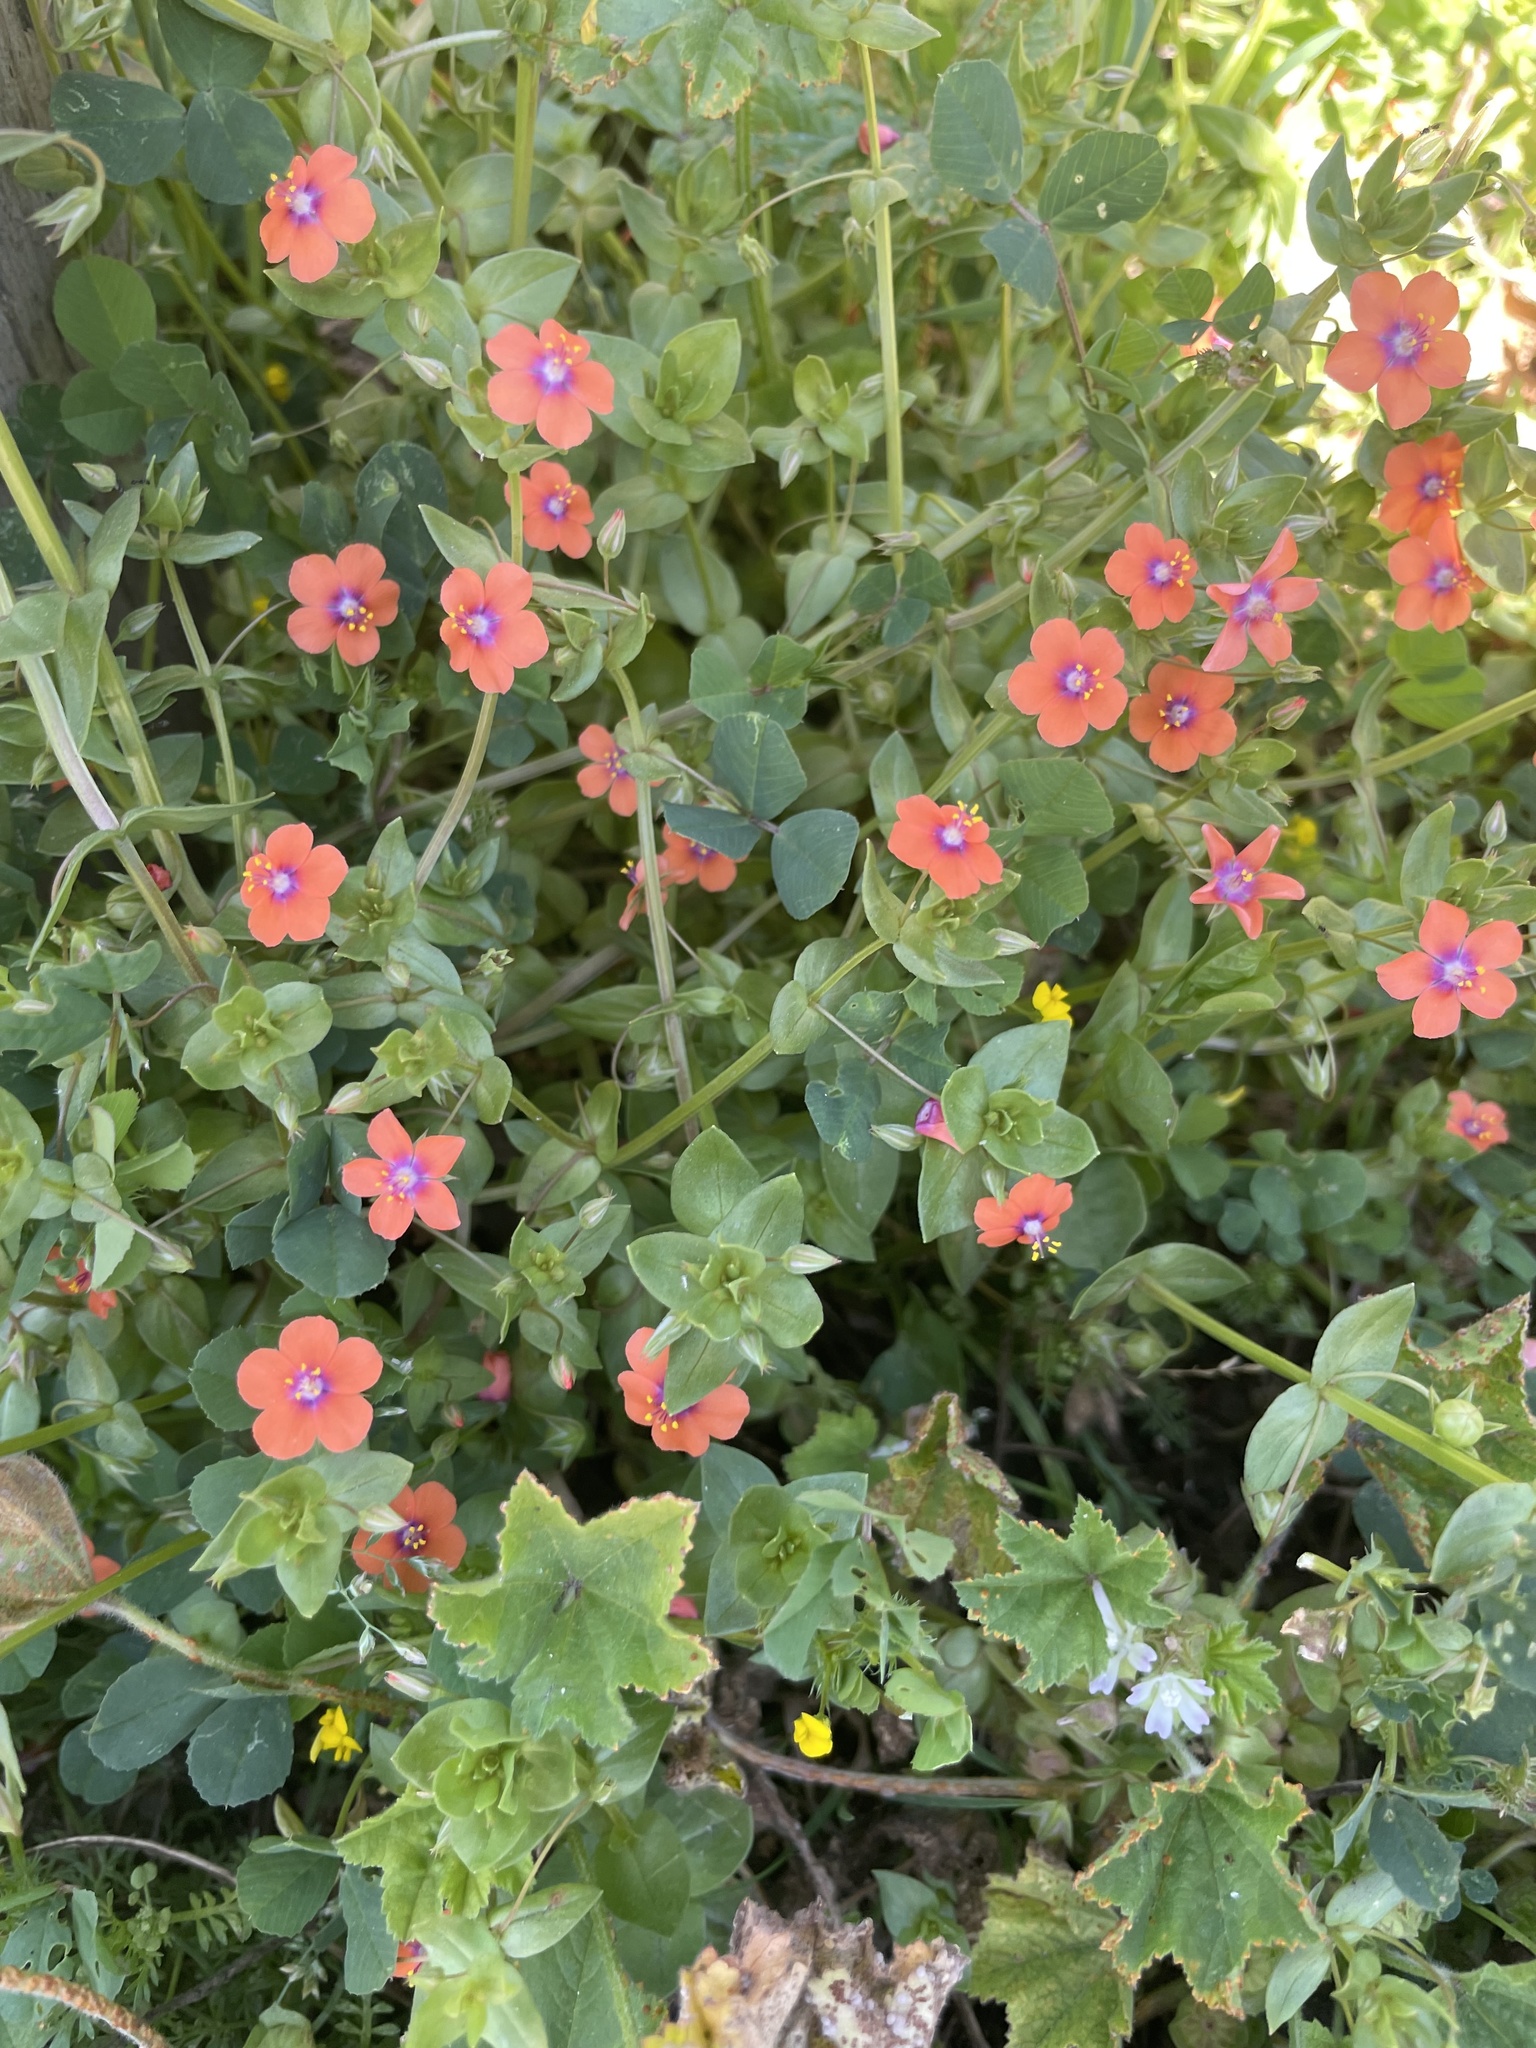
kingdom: Plantae
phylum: Tracheophyta
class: Magnoliopsida
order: Ericales
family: Primulaceae
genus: Lysimachia
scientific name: Lysimachia arvensis
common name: Scarlet pimpernel
